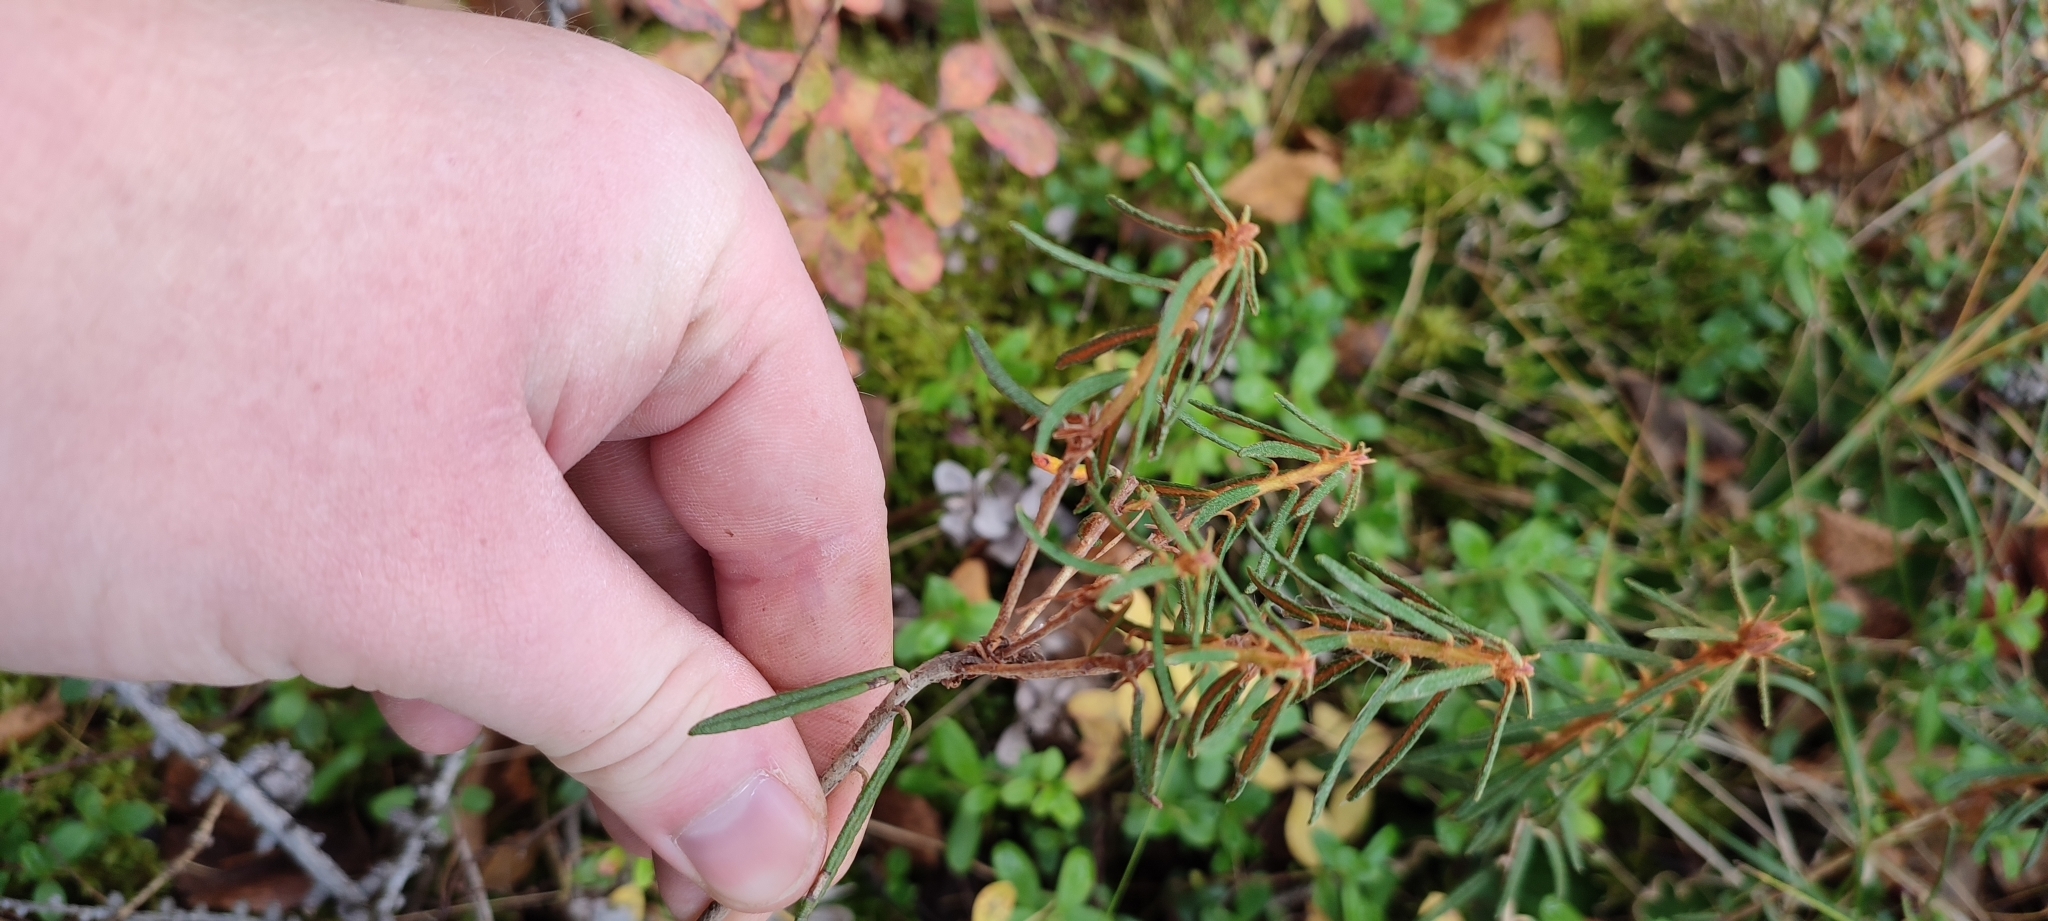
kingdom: Plantae
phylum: Tracheophyta
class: Magnoliopsida
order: Ericales
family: Ericaceae
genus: Rhododendron
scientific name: Rhododendron tomentosum
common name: Marsh labrador tea
